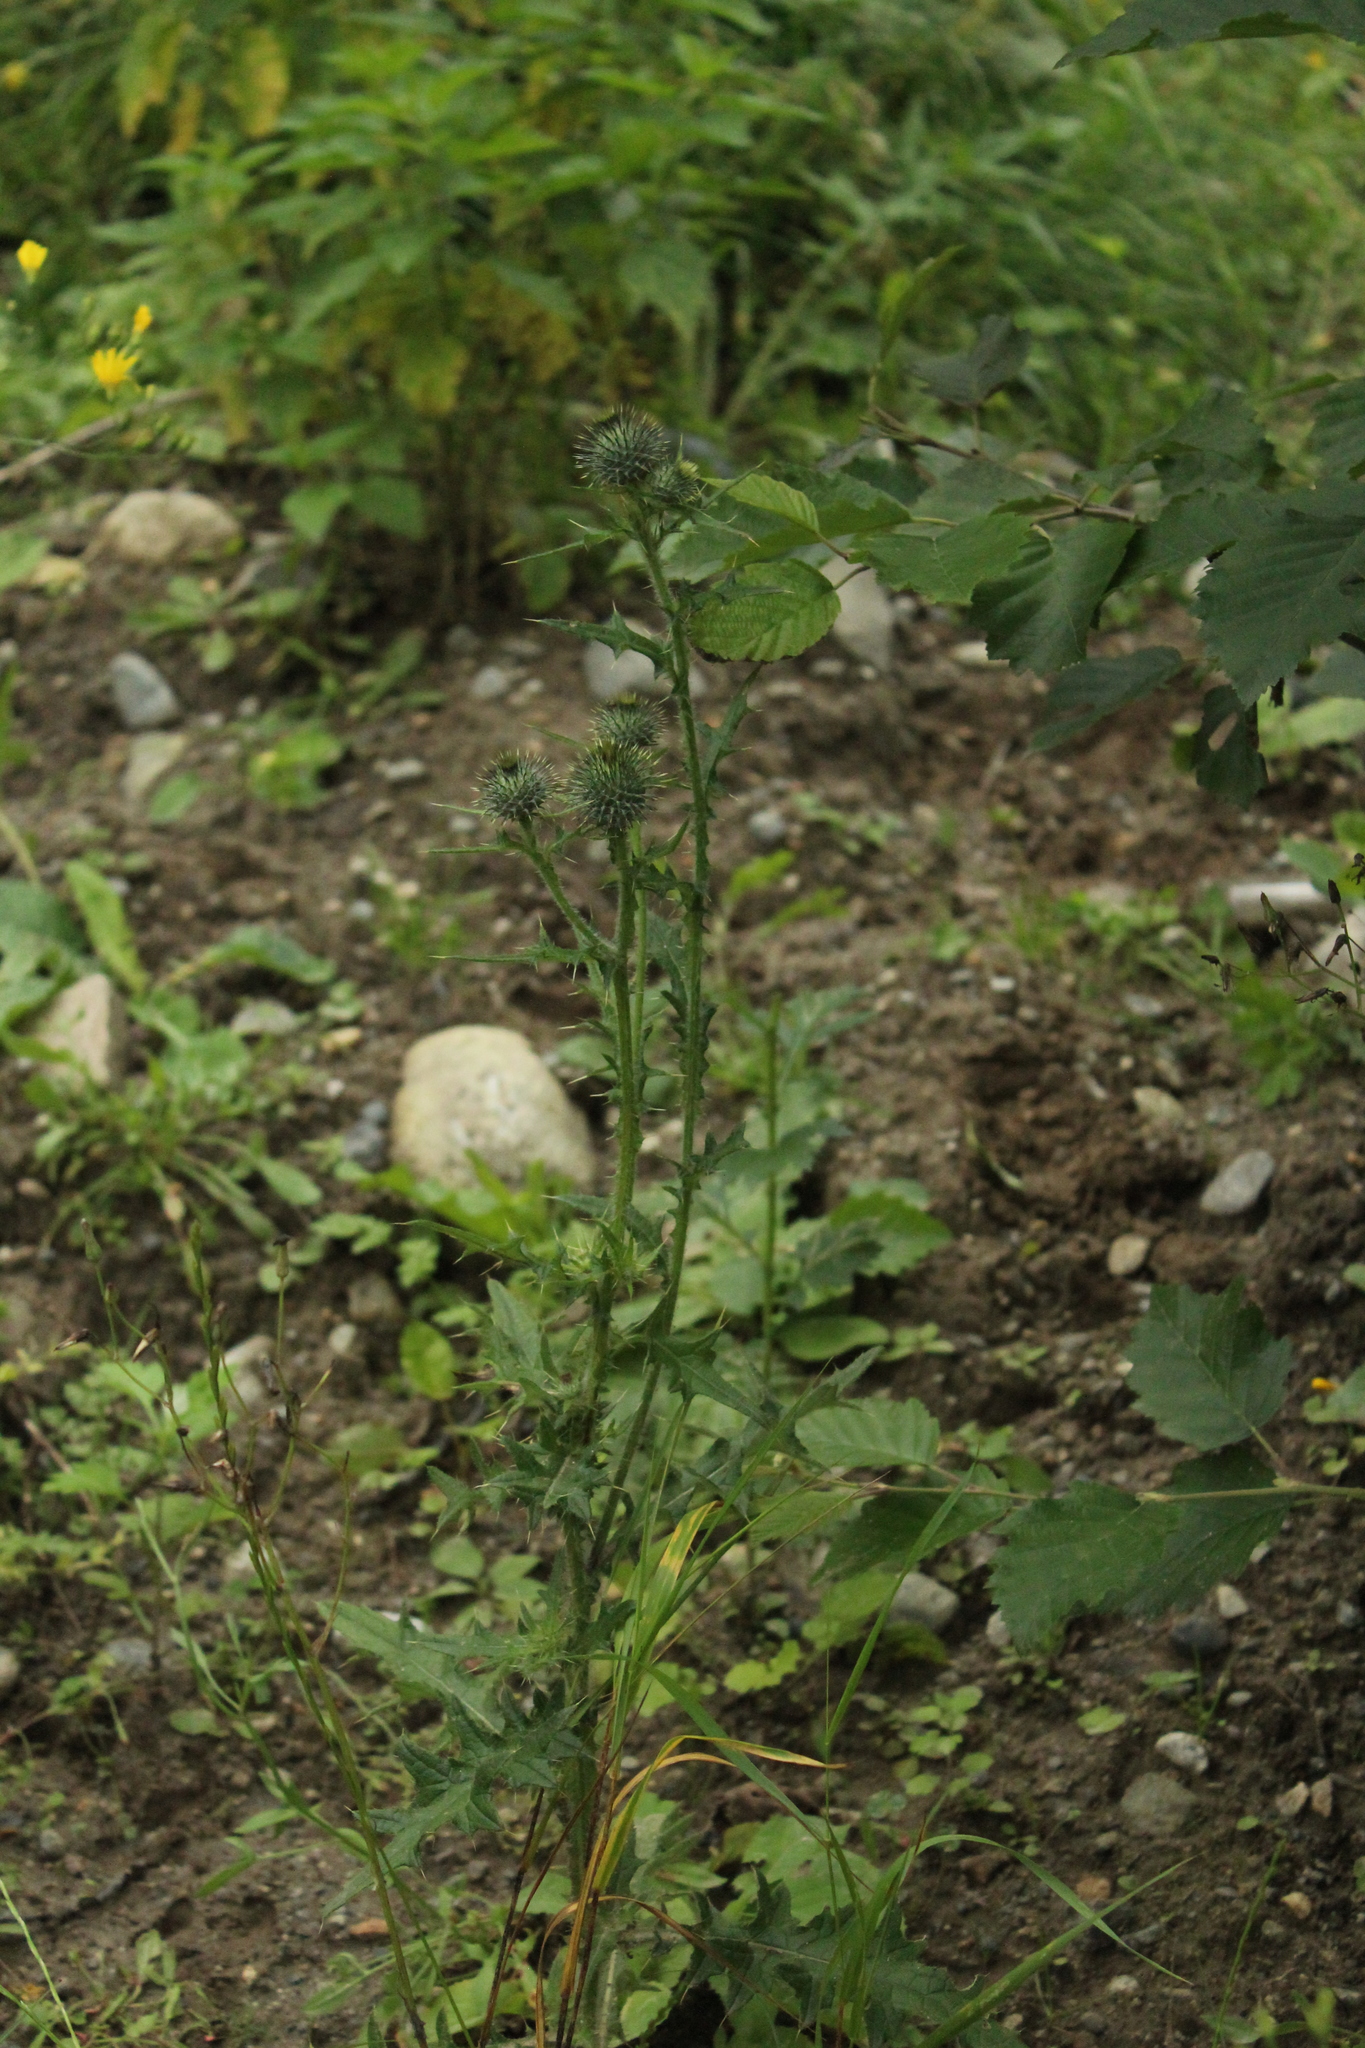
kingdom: Plantae
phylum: Tracheophyta
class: Magnoliopsida
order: Asterales
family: Asteraceae
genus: Cirsium
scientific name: Cirsium vulgare
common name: Bull thistle
